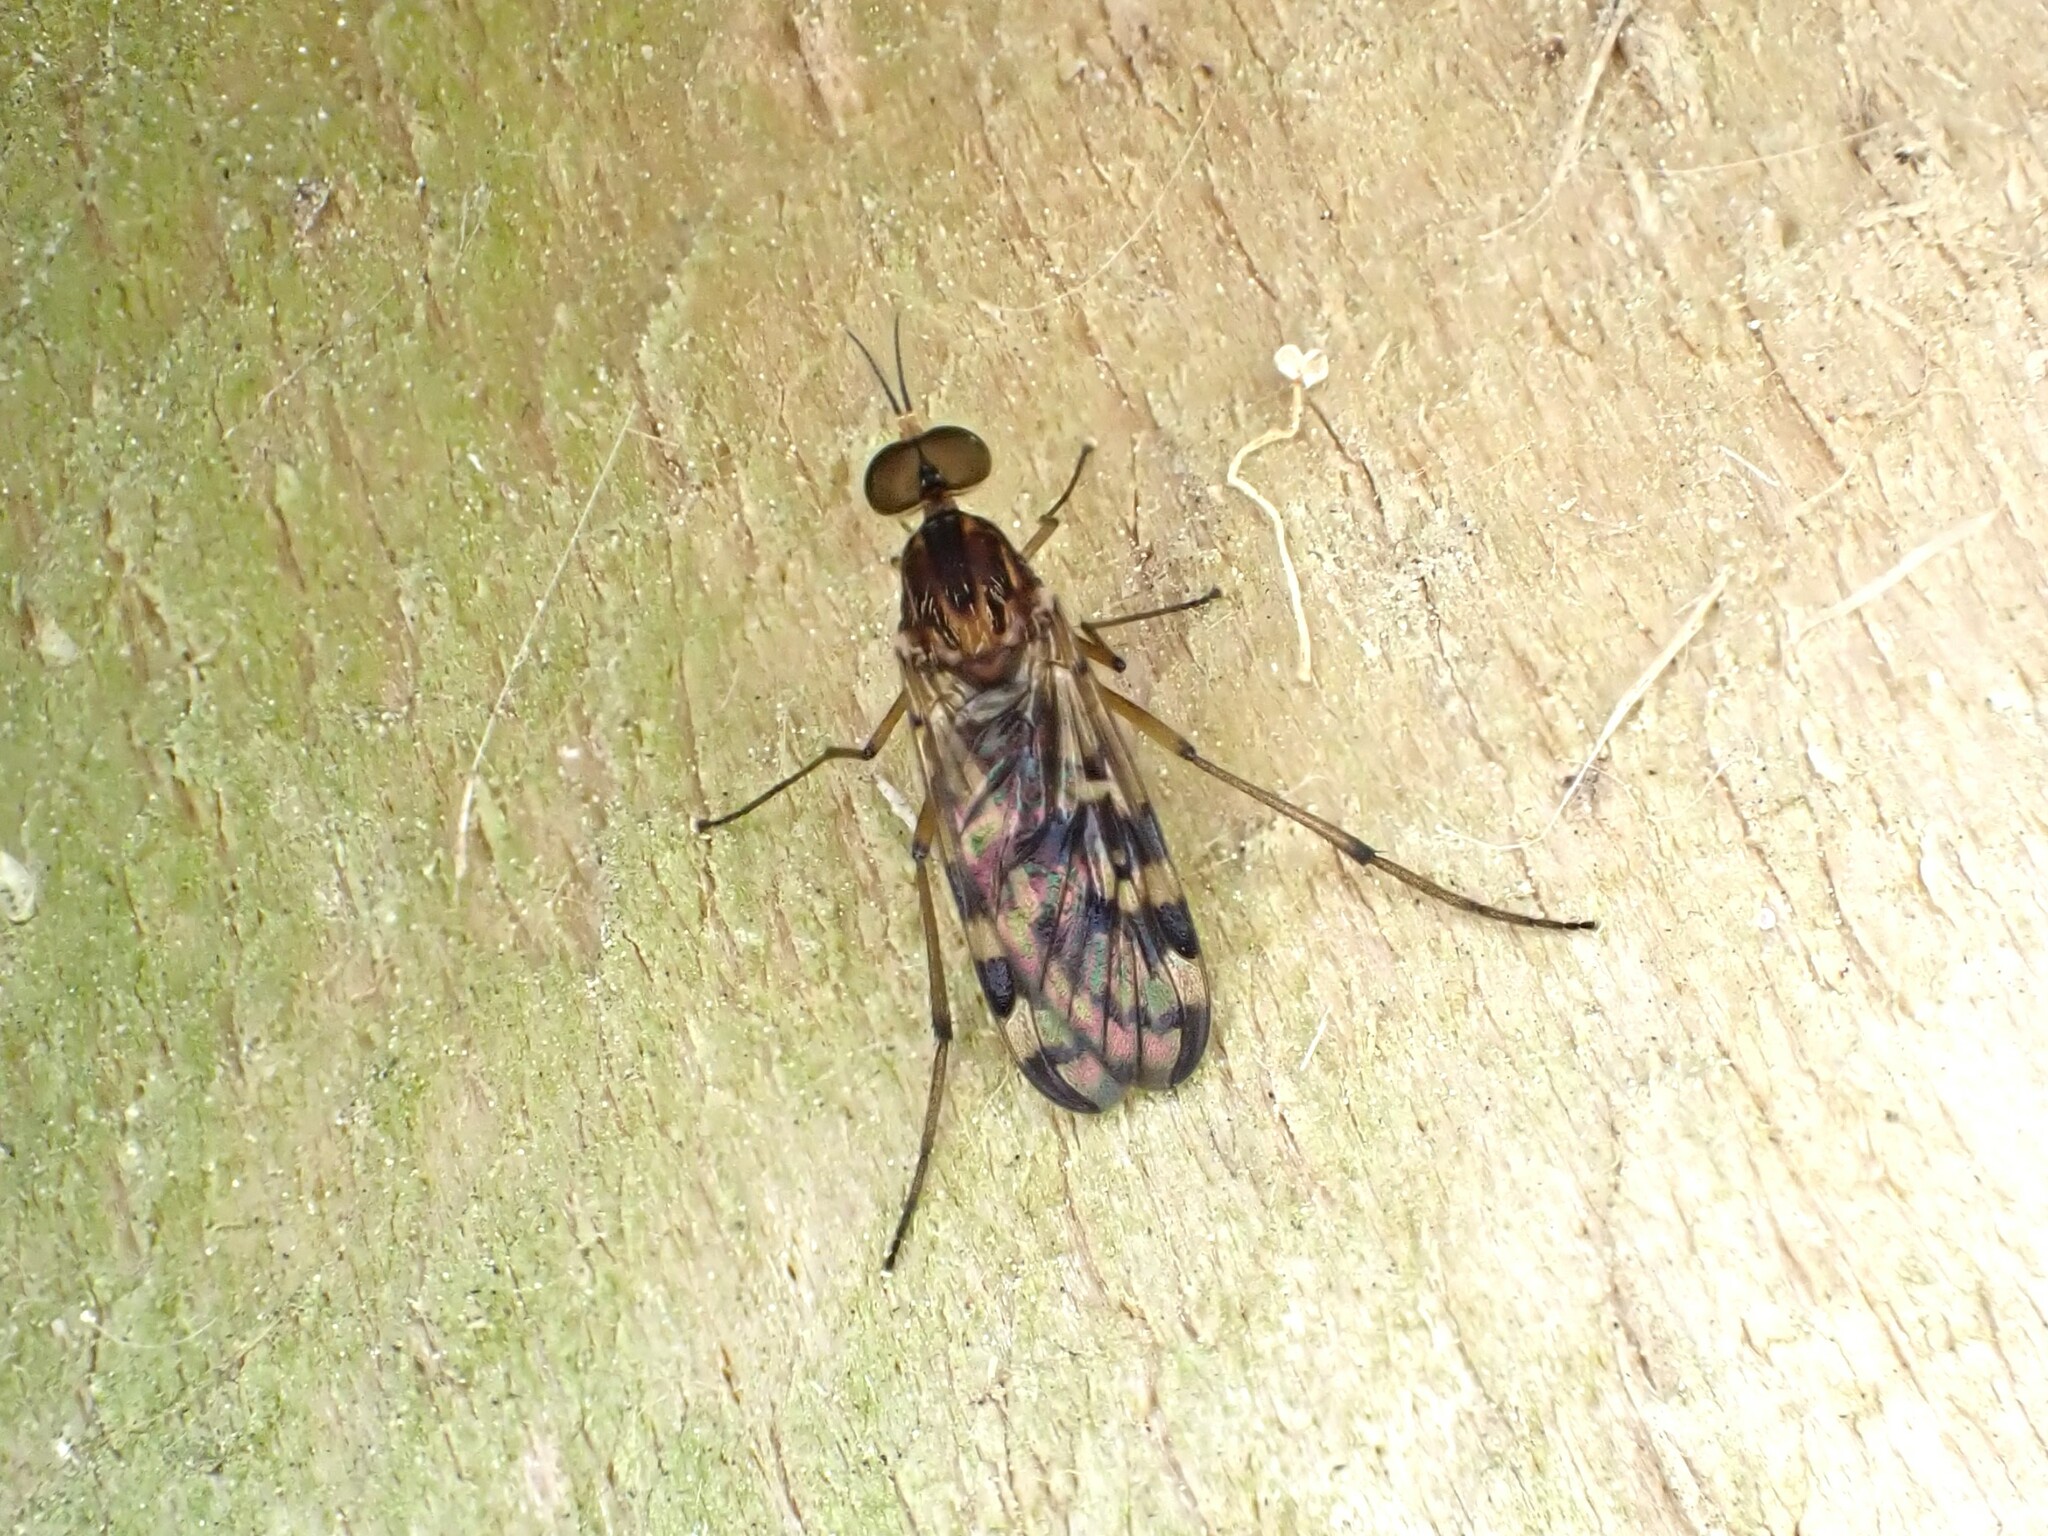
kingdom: Animalia
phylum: Arthropoda
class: Insecta
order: Diptera
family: Anisopodidae
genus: Sylvicola
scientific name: Sylvicola dubius
